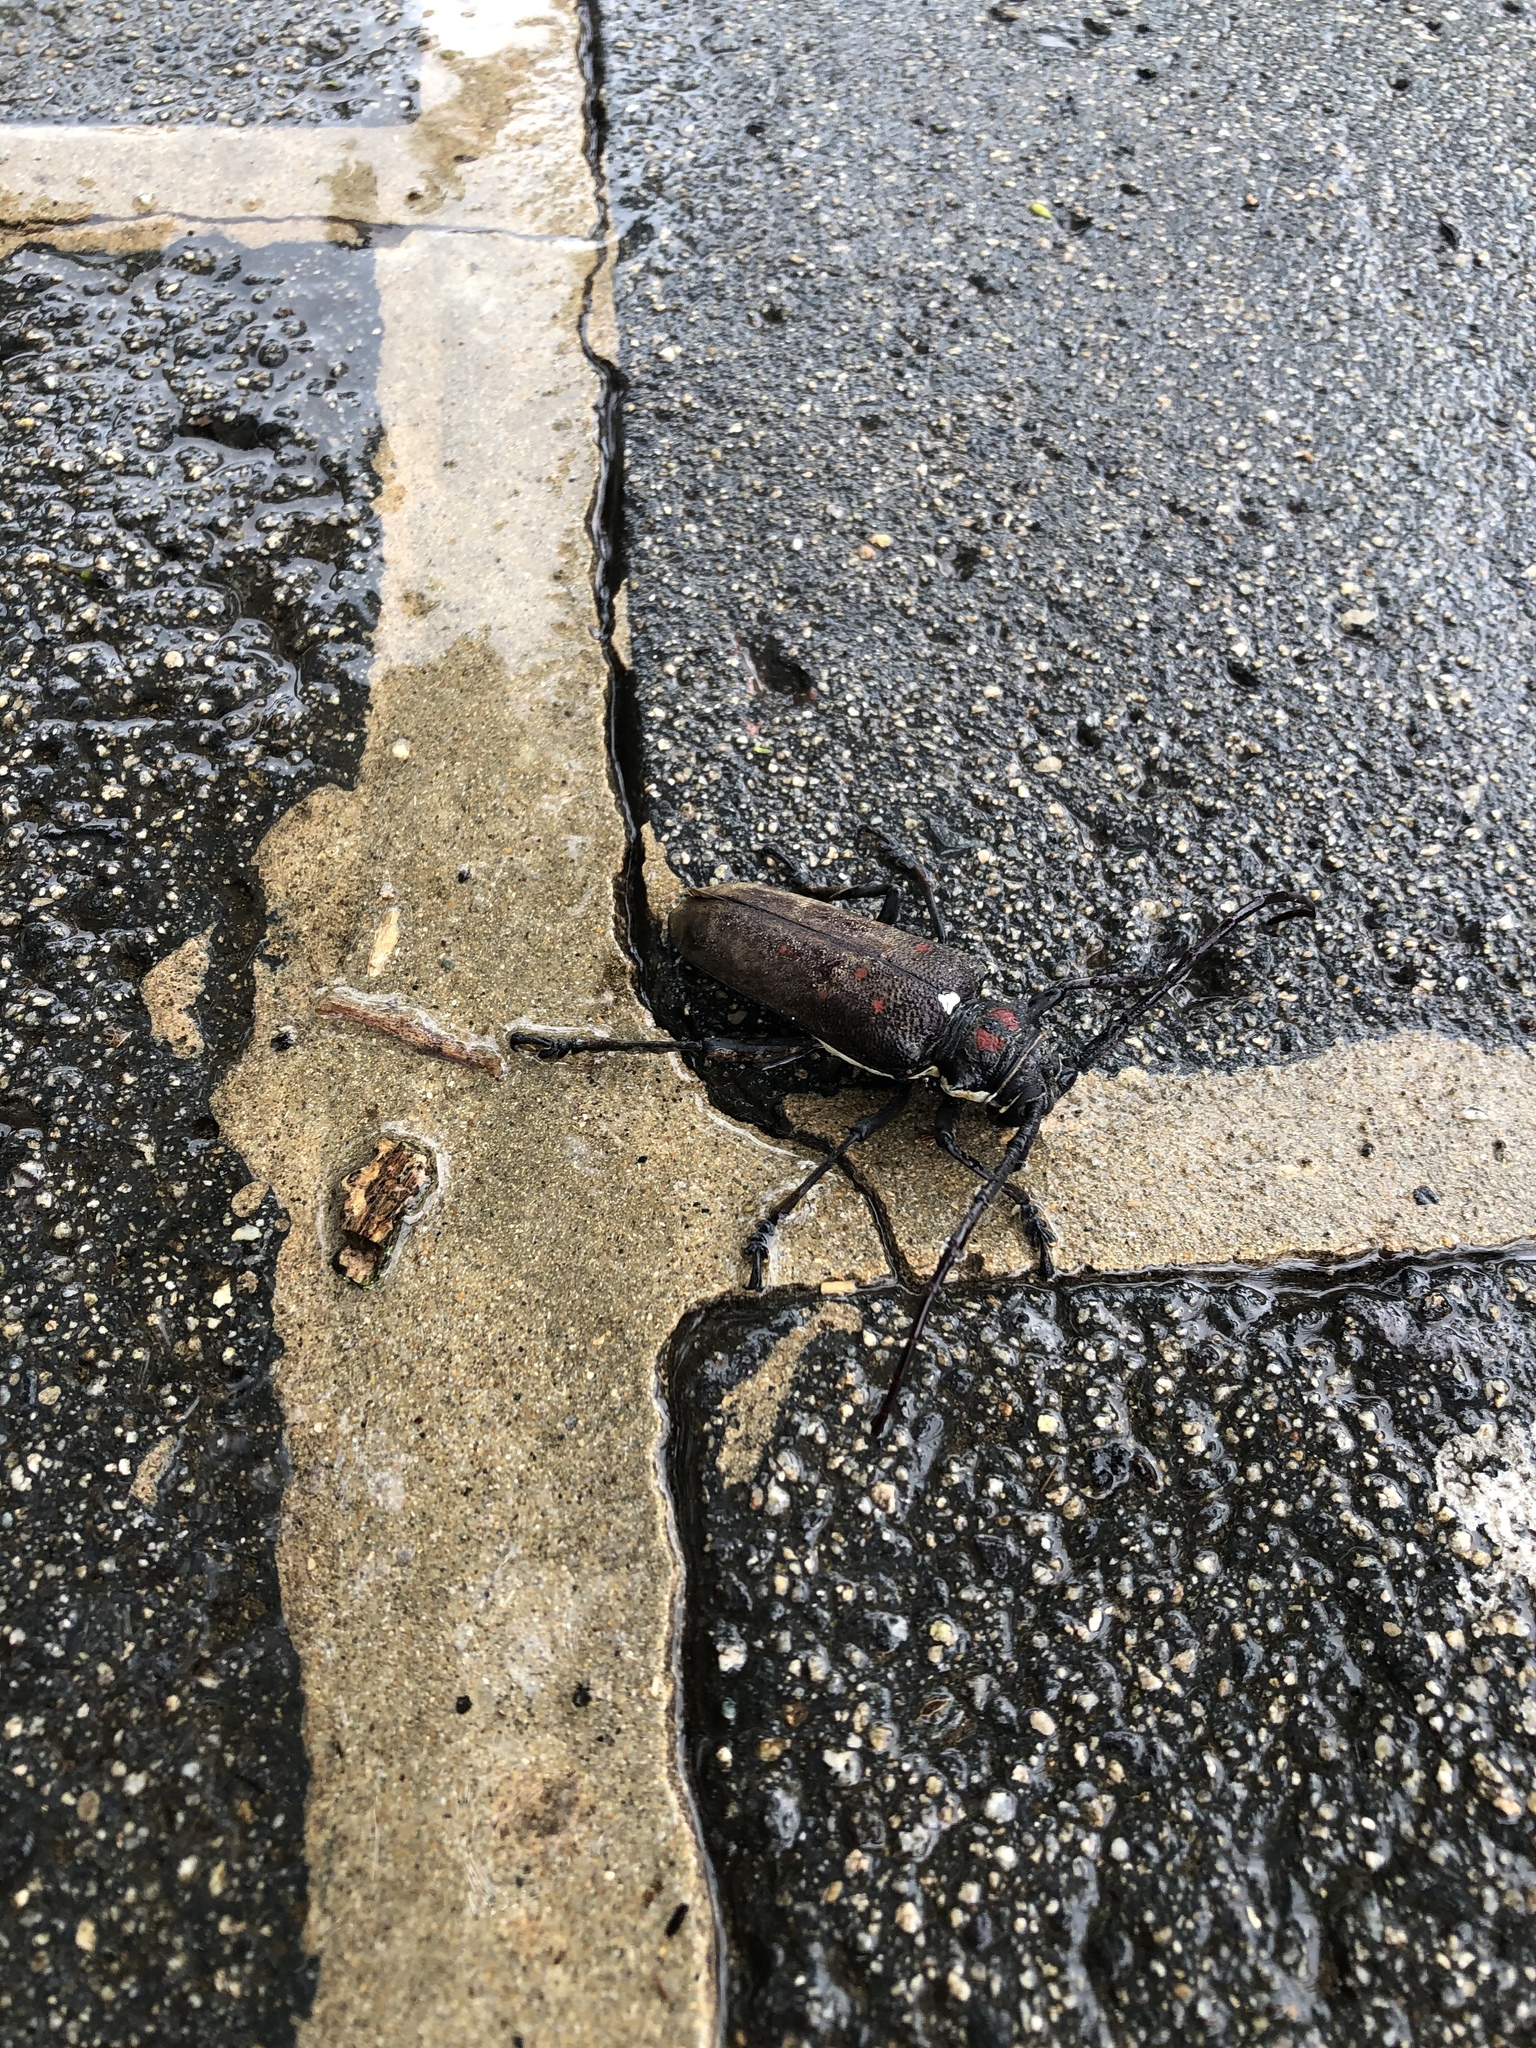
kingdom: Animalia
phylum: Arthropoda
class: Insecta
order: Coleoptera
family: Cerambycidae
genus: Batocera
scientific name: Batocera rufomaculata
